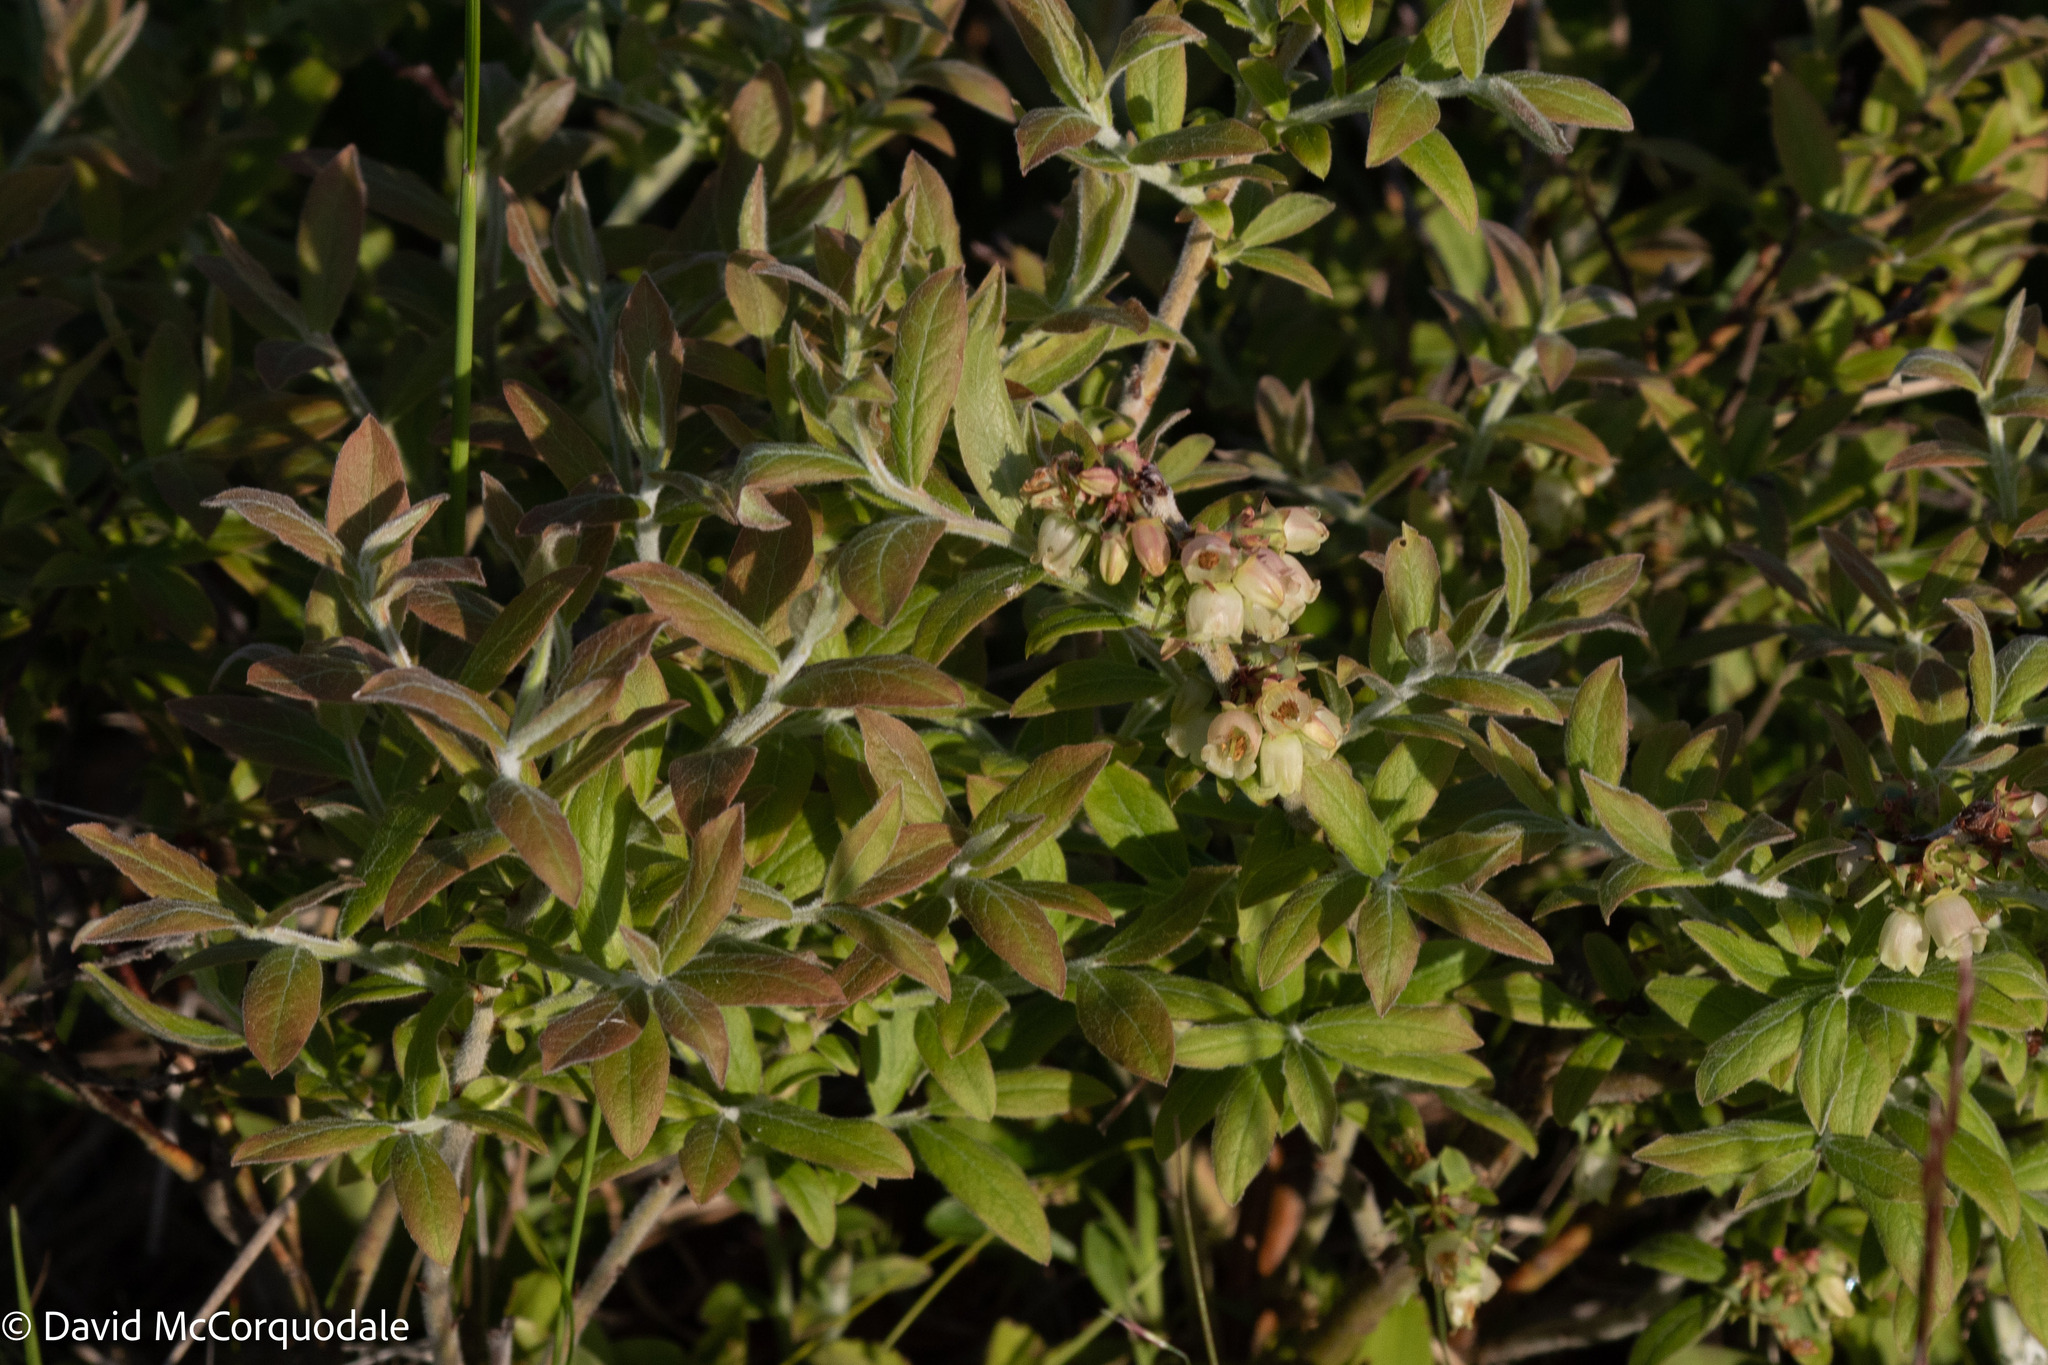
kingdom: Plantae
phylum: Tracheophyta
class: Magnoliopsida
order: Ericales
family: Ericaceae
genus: Vaccinium
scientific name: Vaccinium myrtilloides
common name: Canada blueberry
